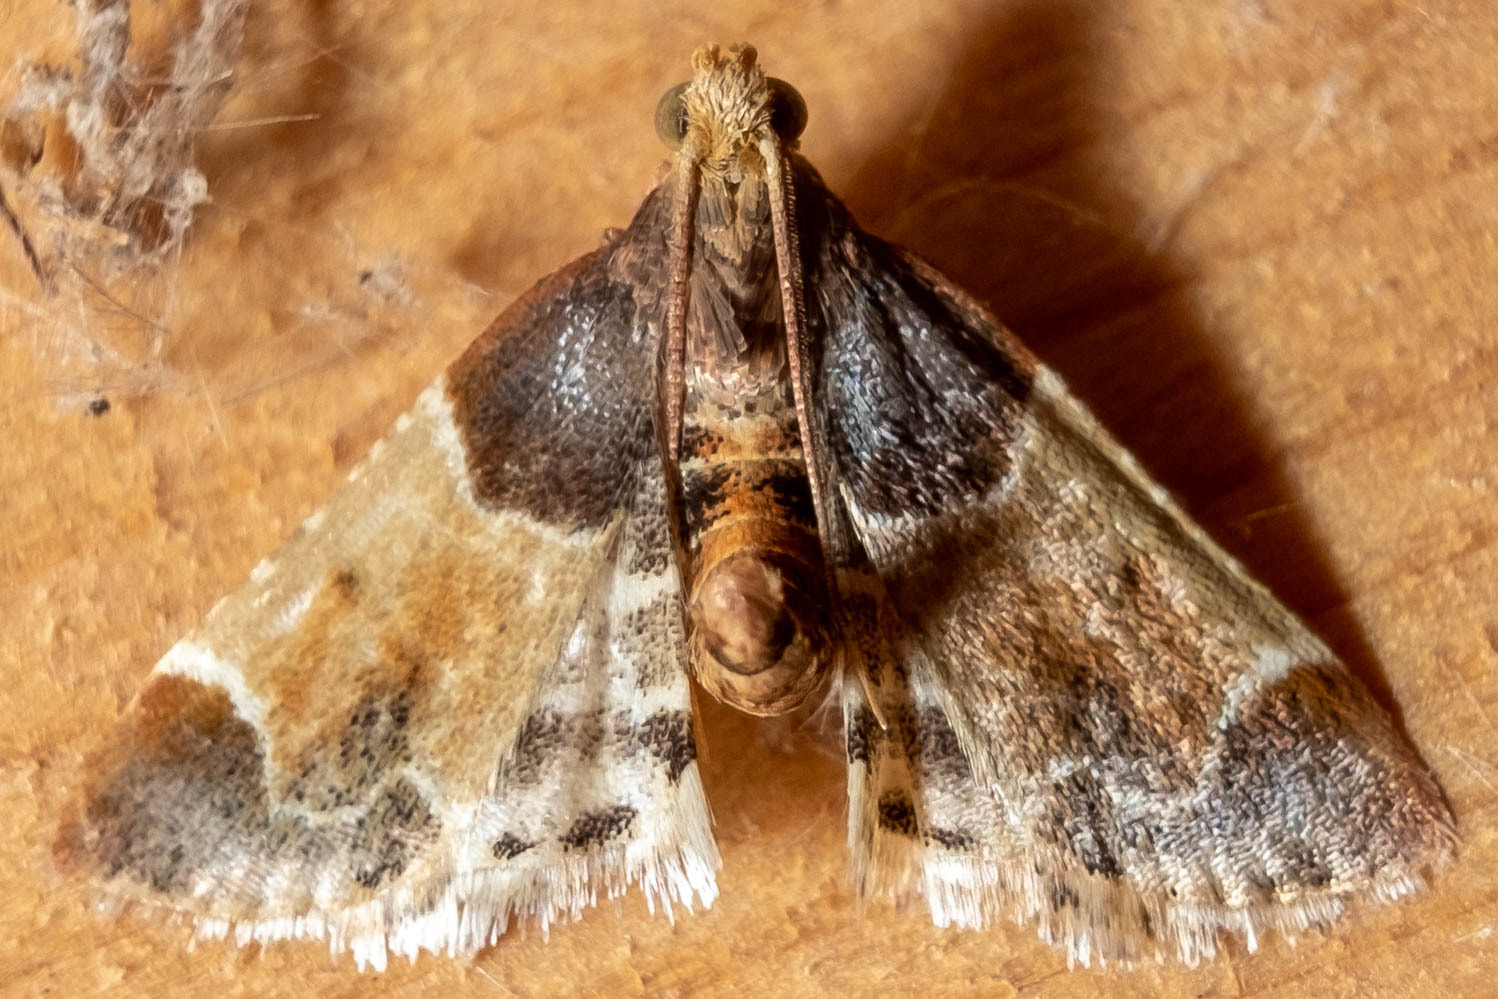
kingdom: Animalia
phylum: Arthropoda
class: Insecta
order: Lepidoptera
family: Pyralidae
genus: Pyralis
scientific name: Pyralis farinalis
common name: Meal moth
